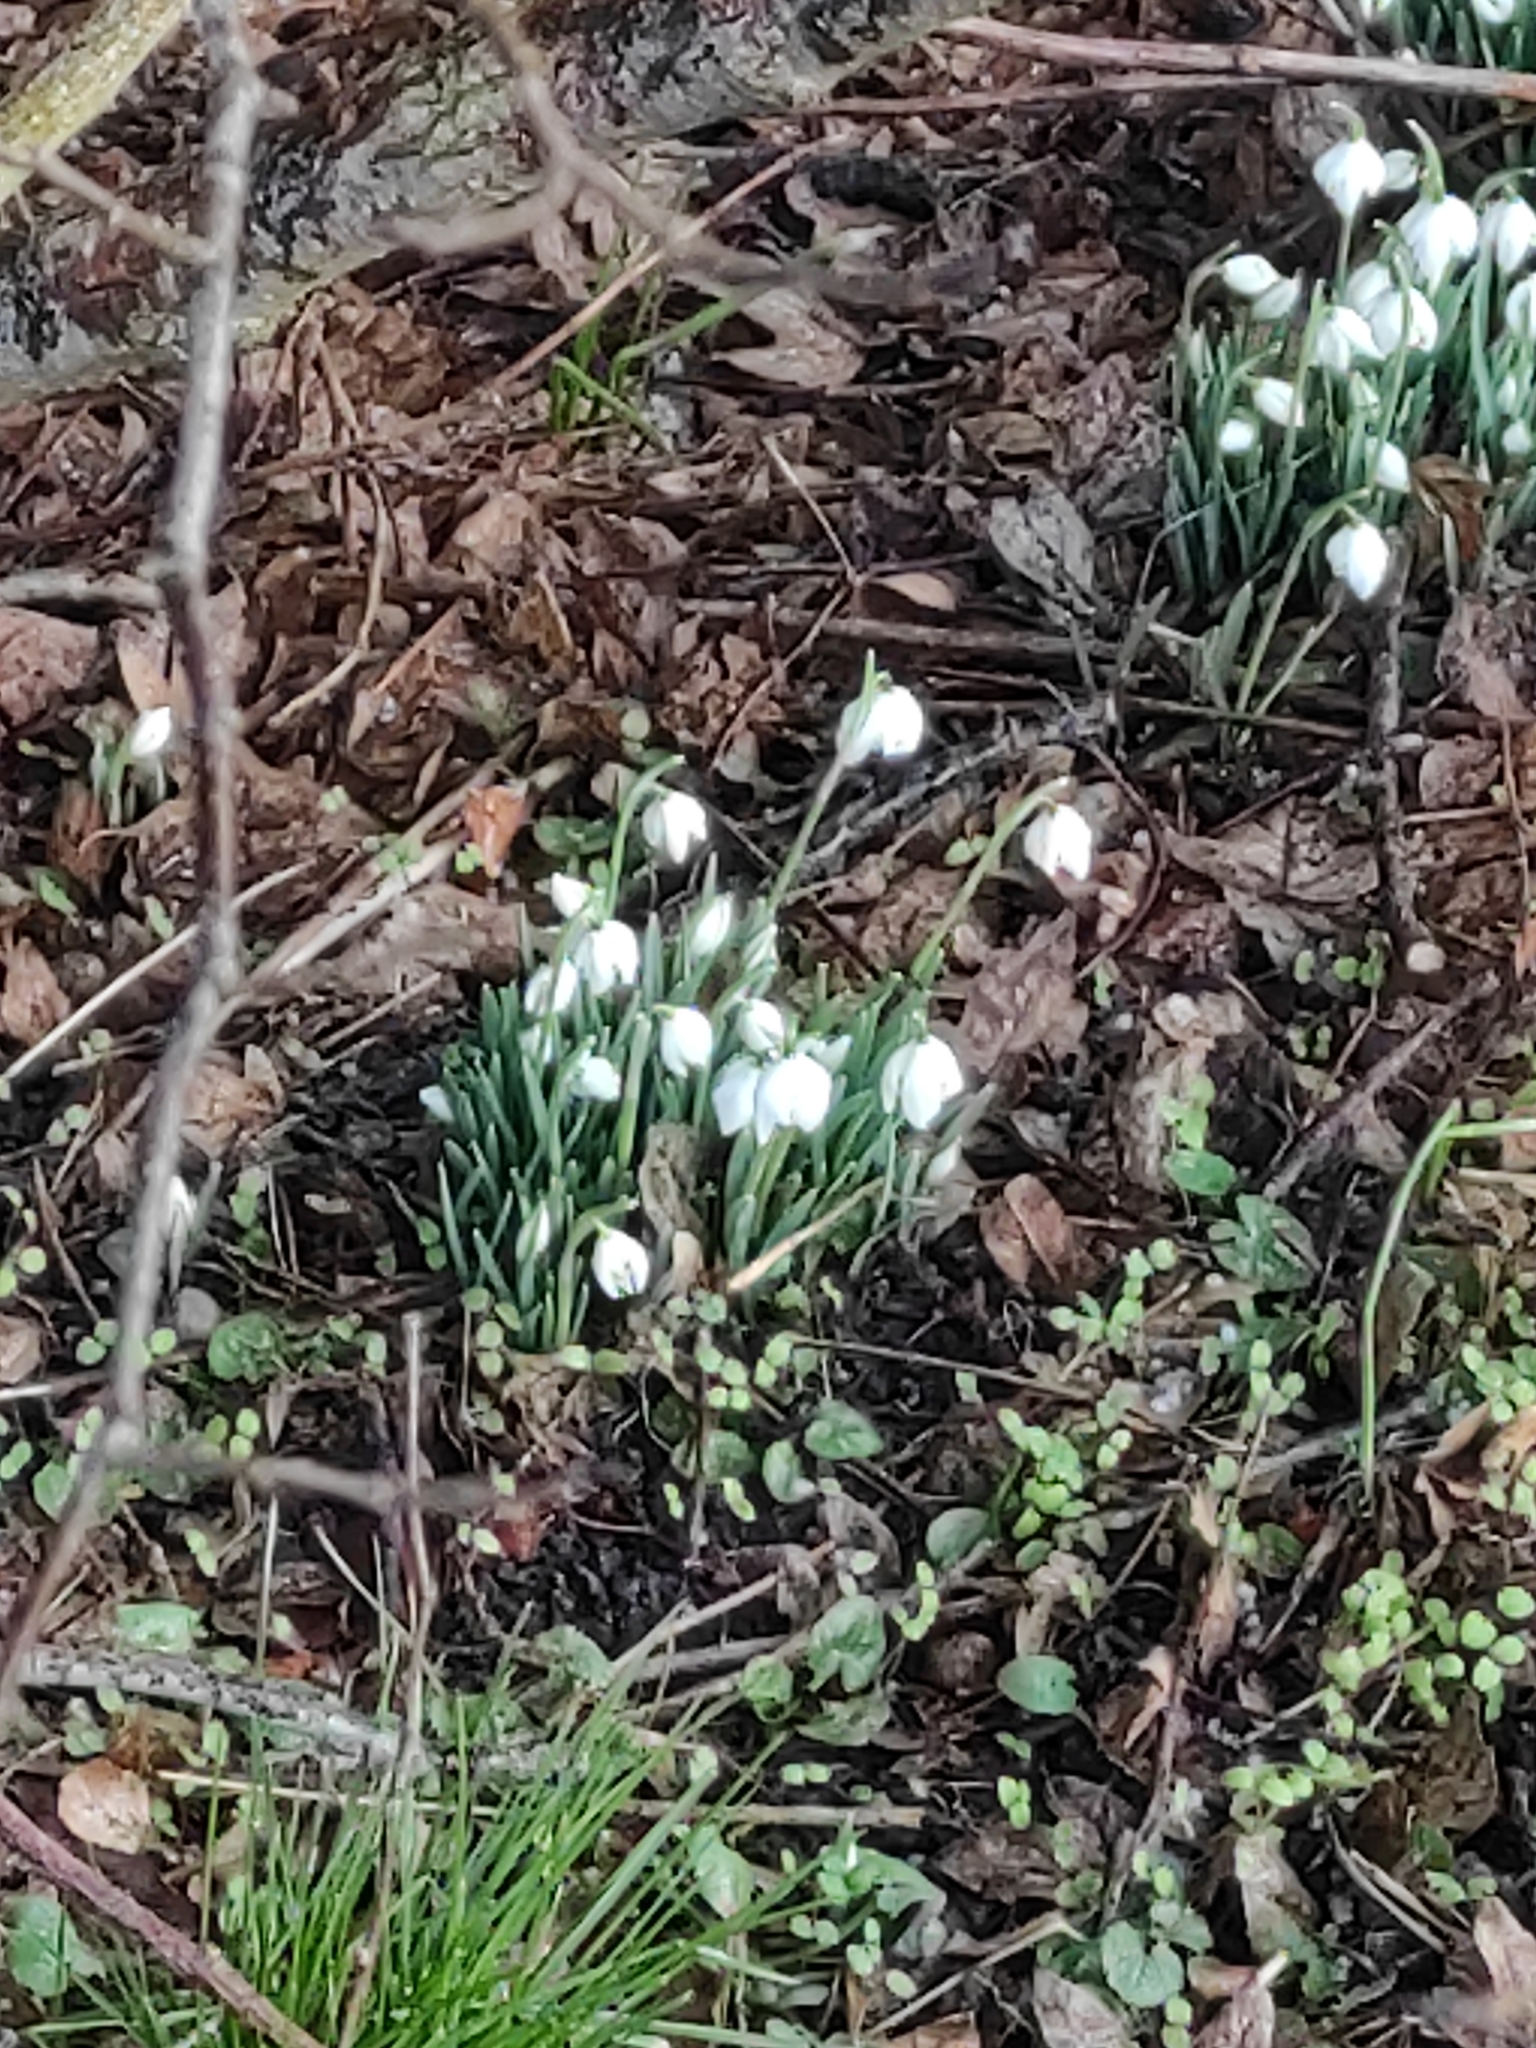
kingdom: Plantae
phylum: Tracheophyta
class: Liliopsida
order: Asparagales
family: Amaryllidaceae
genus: Galanthus
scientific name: Galanthus nivalis
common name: Snowdrop
